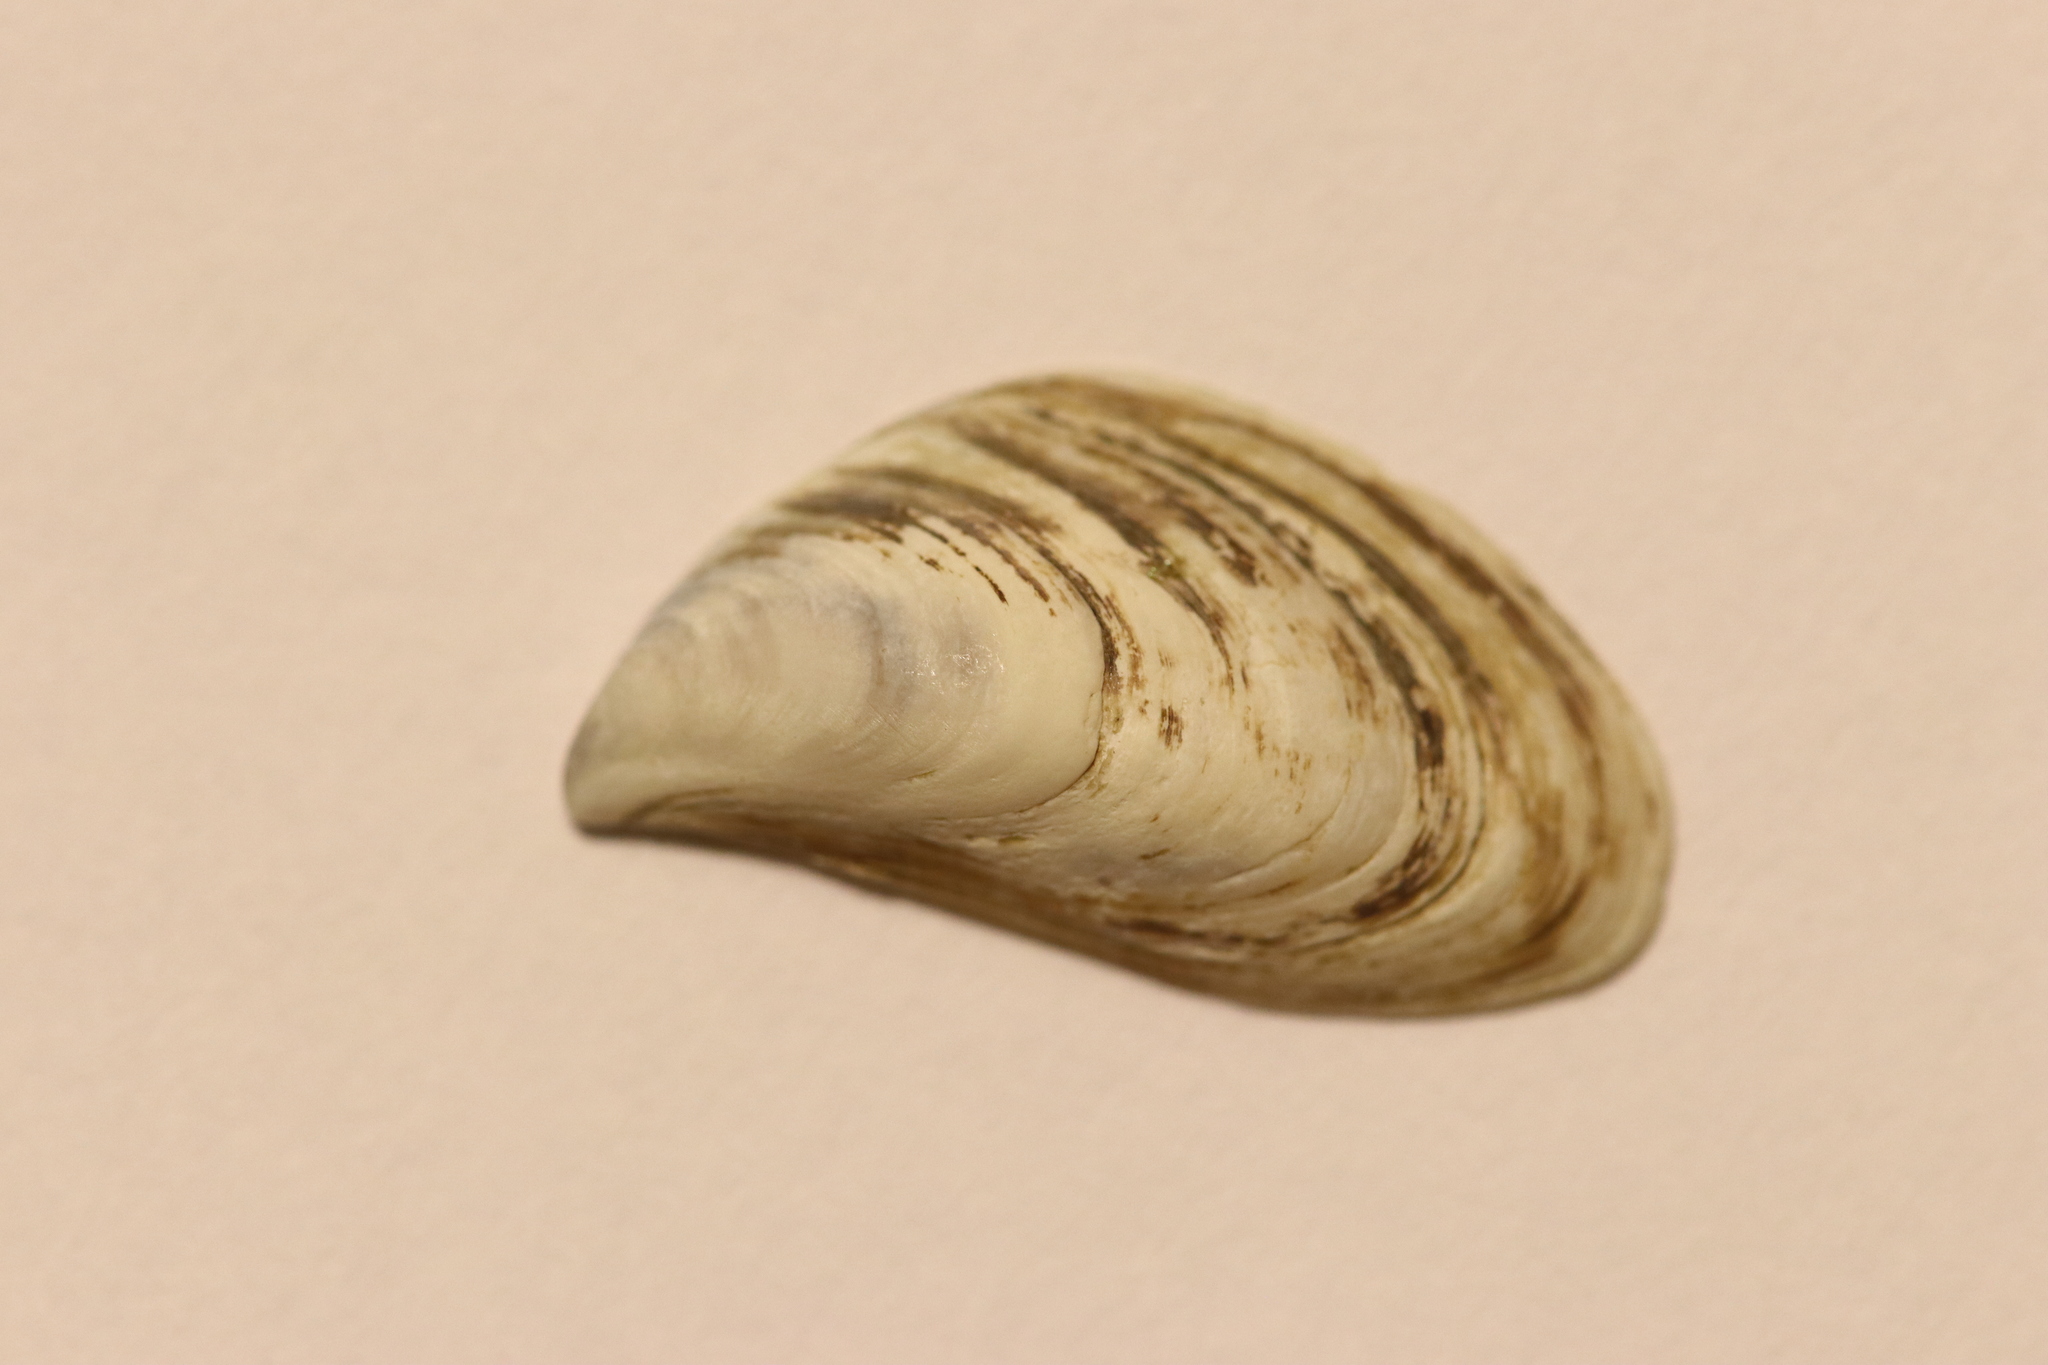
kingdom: Animalia
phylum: Mollusca
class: Bivalvia
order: Myida
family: Dreissenidae
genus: Dreissena
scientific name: Dreissena bugensis
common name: Quagga mussel
